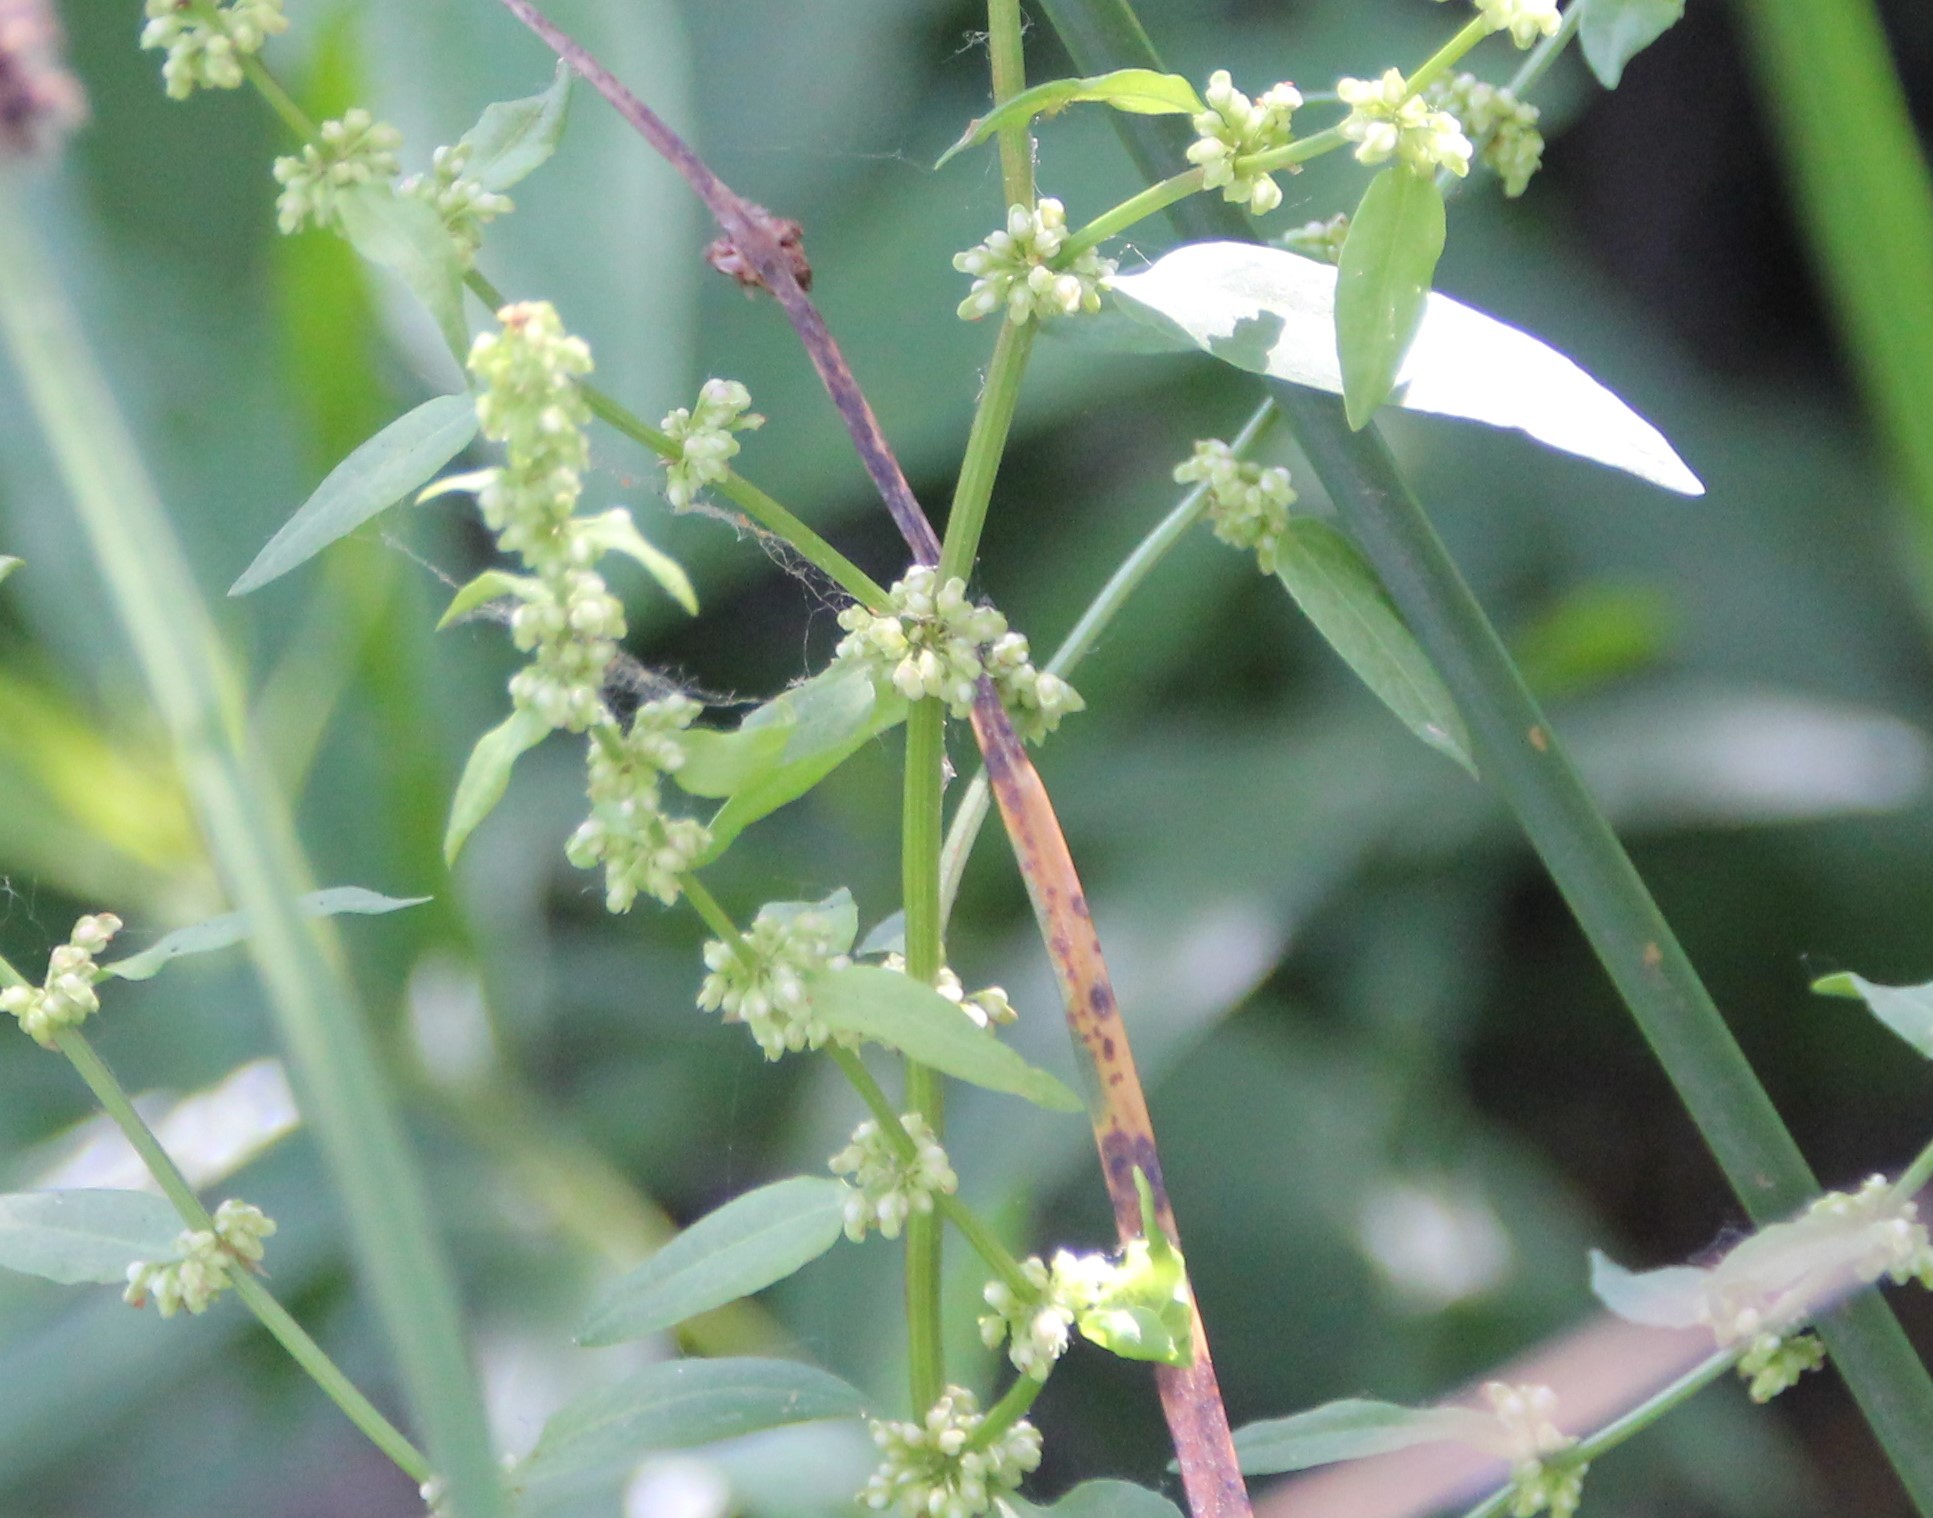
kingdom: Plantae
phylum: Tracheophyta
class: Magnoliopsida
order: Caryophyllales
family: Polygonaceae
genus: Rumex
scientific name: Rumex conglomeratus
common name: Clustered dock
